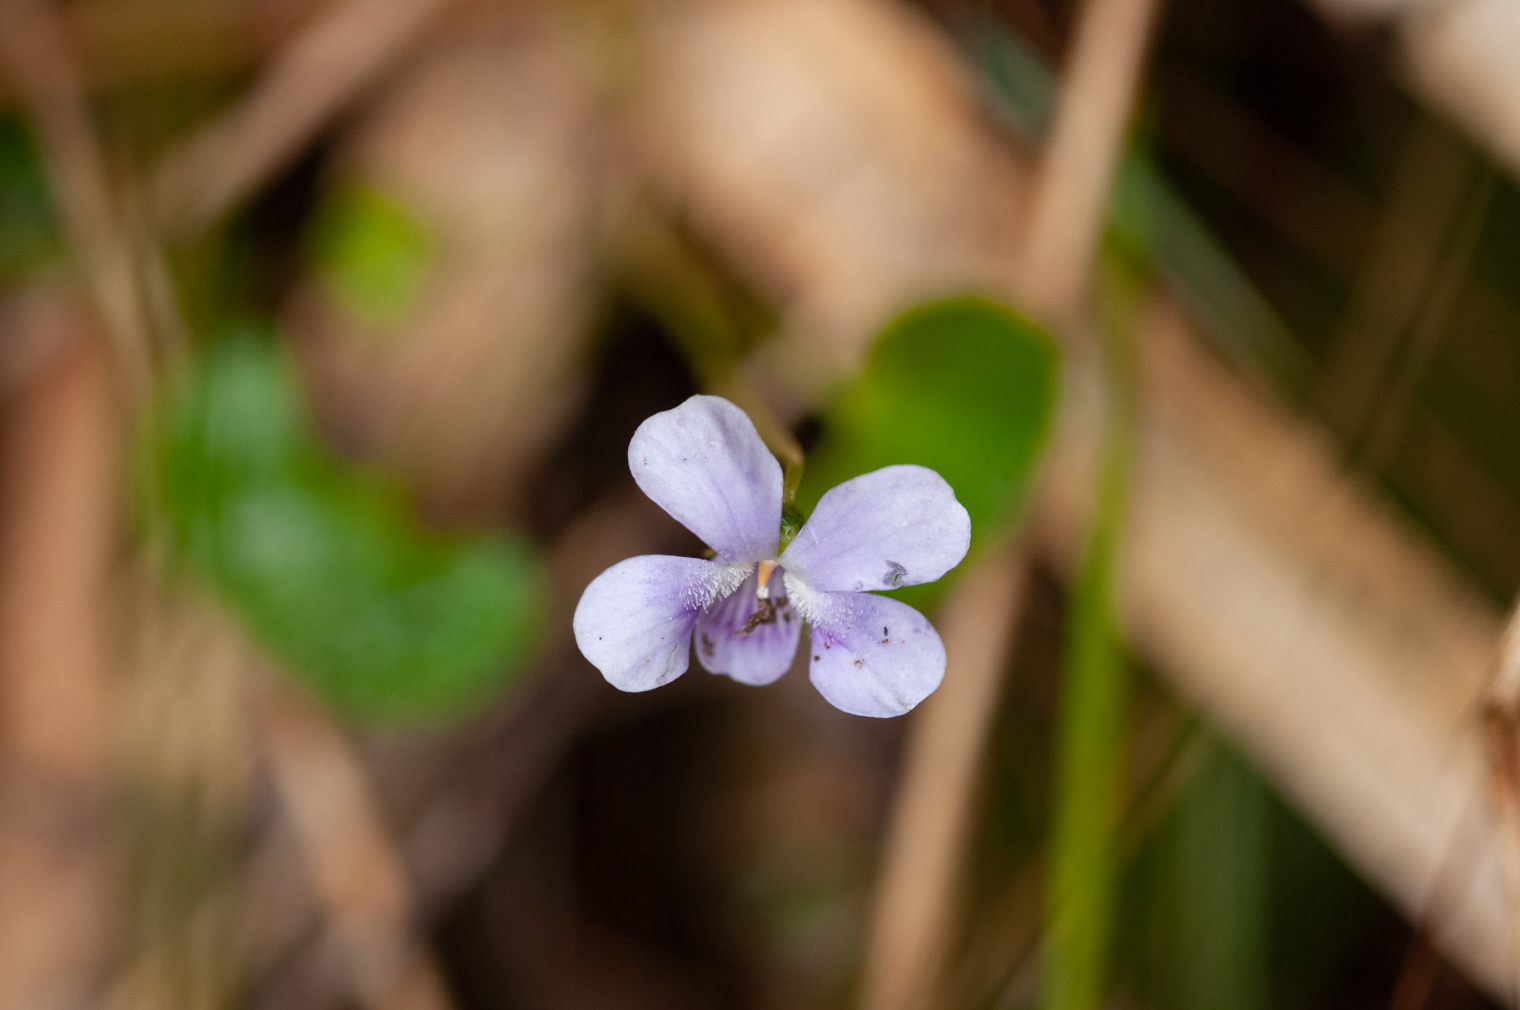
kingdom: Plantae
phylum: Tracheophyta
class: Magnoliopsida
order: Malpighiales
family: Violaceae
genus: Viola
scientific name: Viola silicestris
